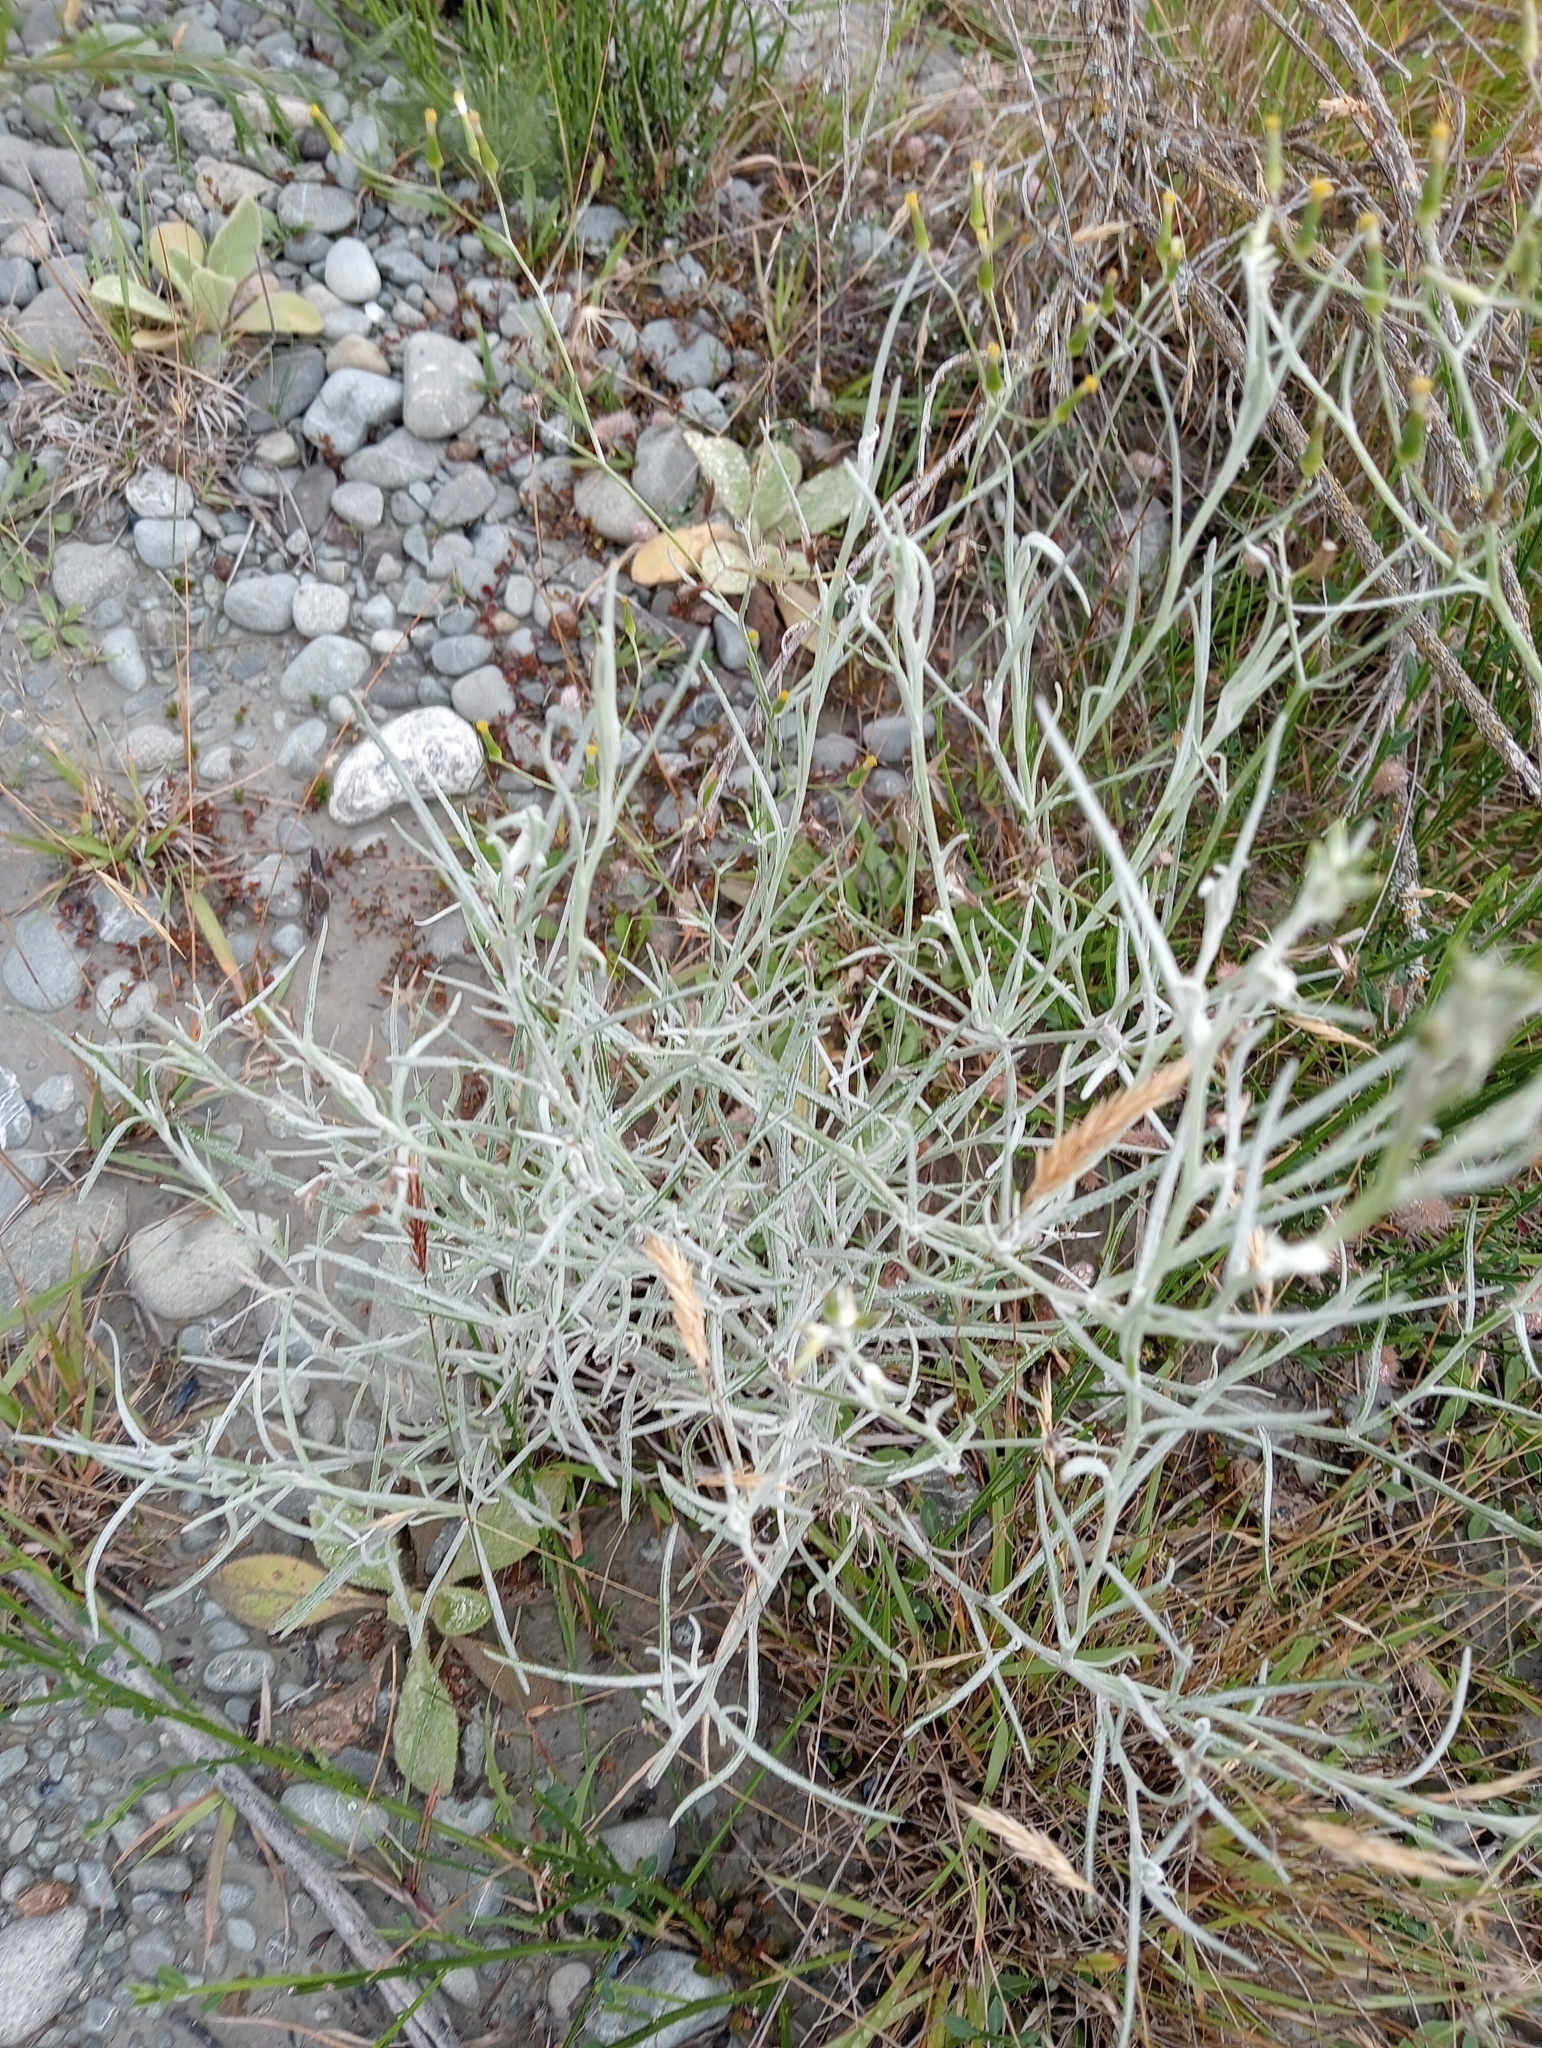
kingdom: Plantae
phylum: Tracheophyta
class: Magnoliopsida
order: Asterales
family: Asteraceae
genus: Senecio
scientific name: Senecio quadridentatus
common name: Cotton fireweed
